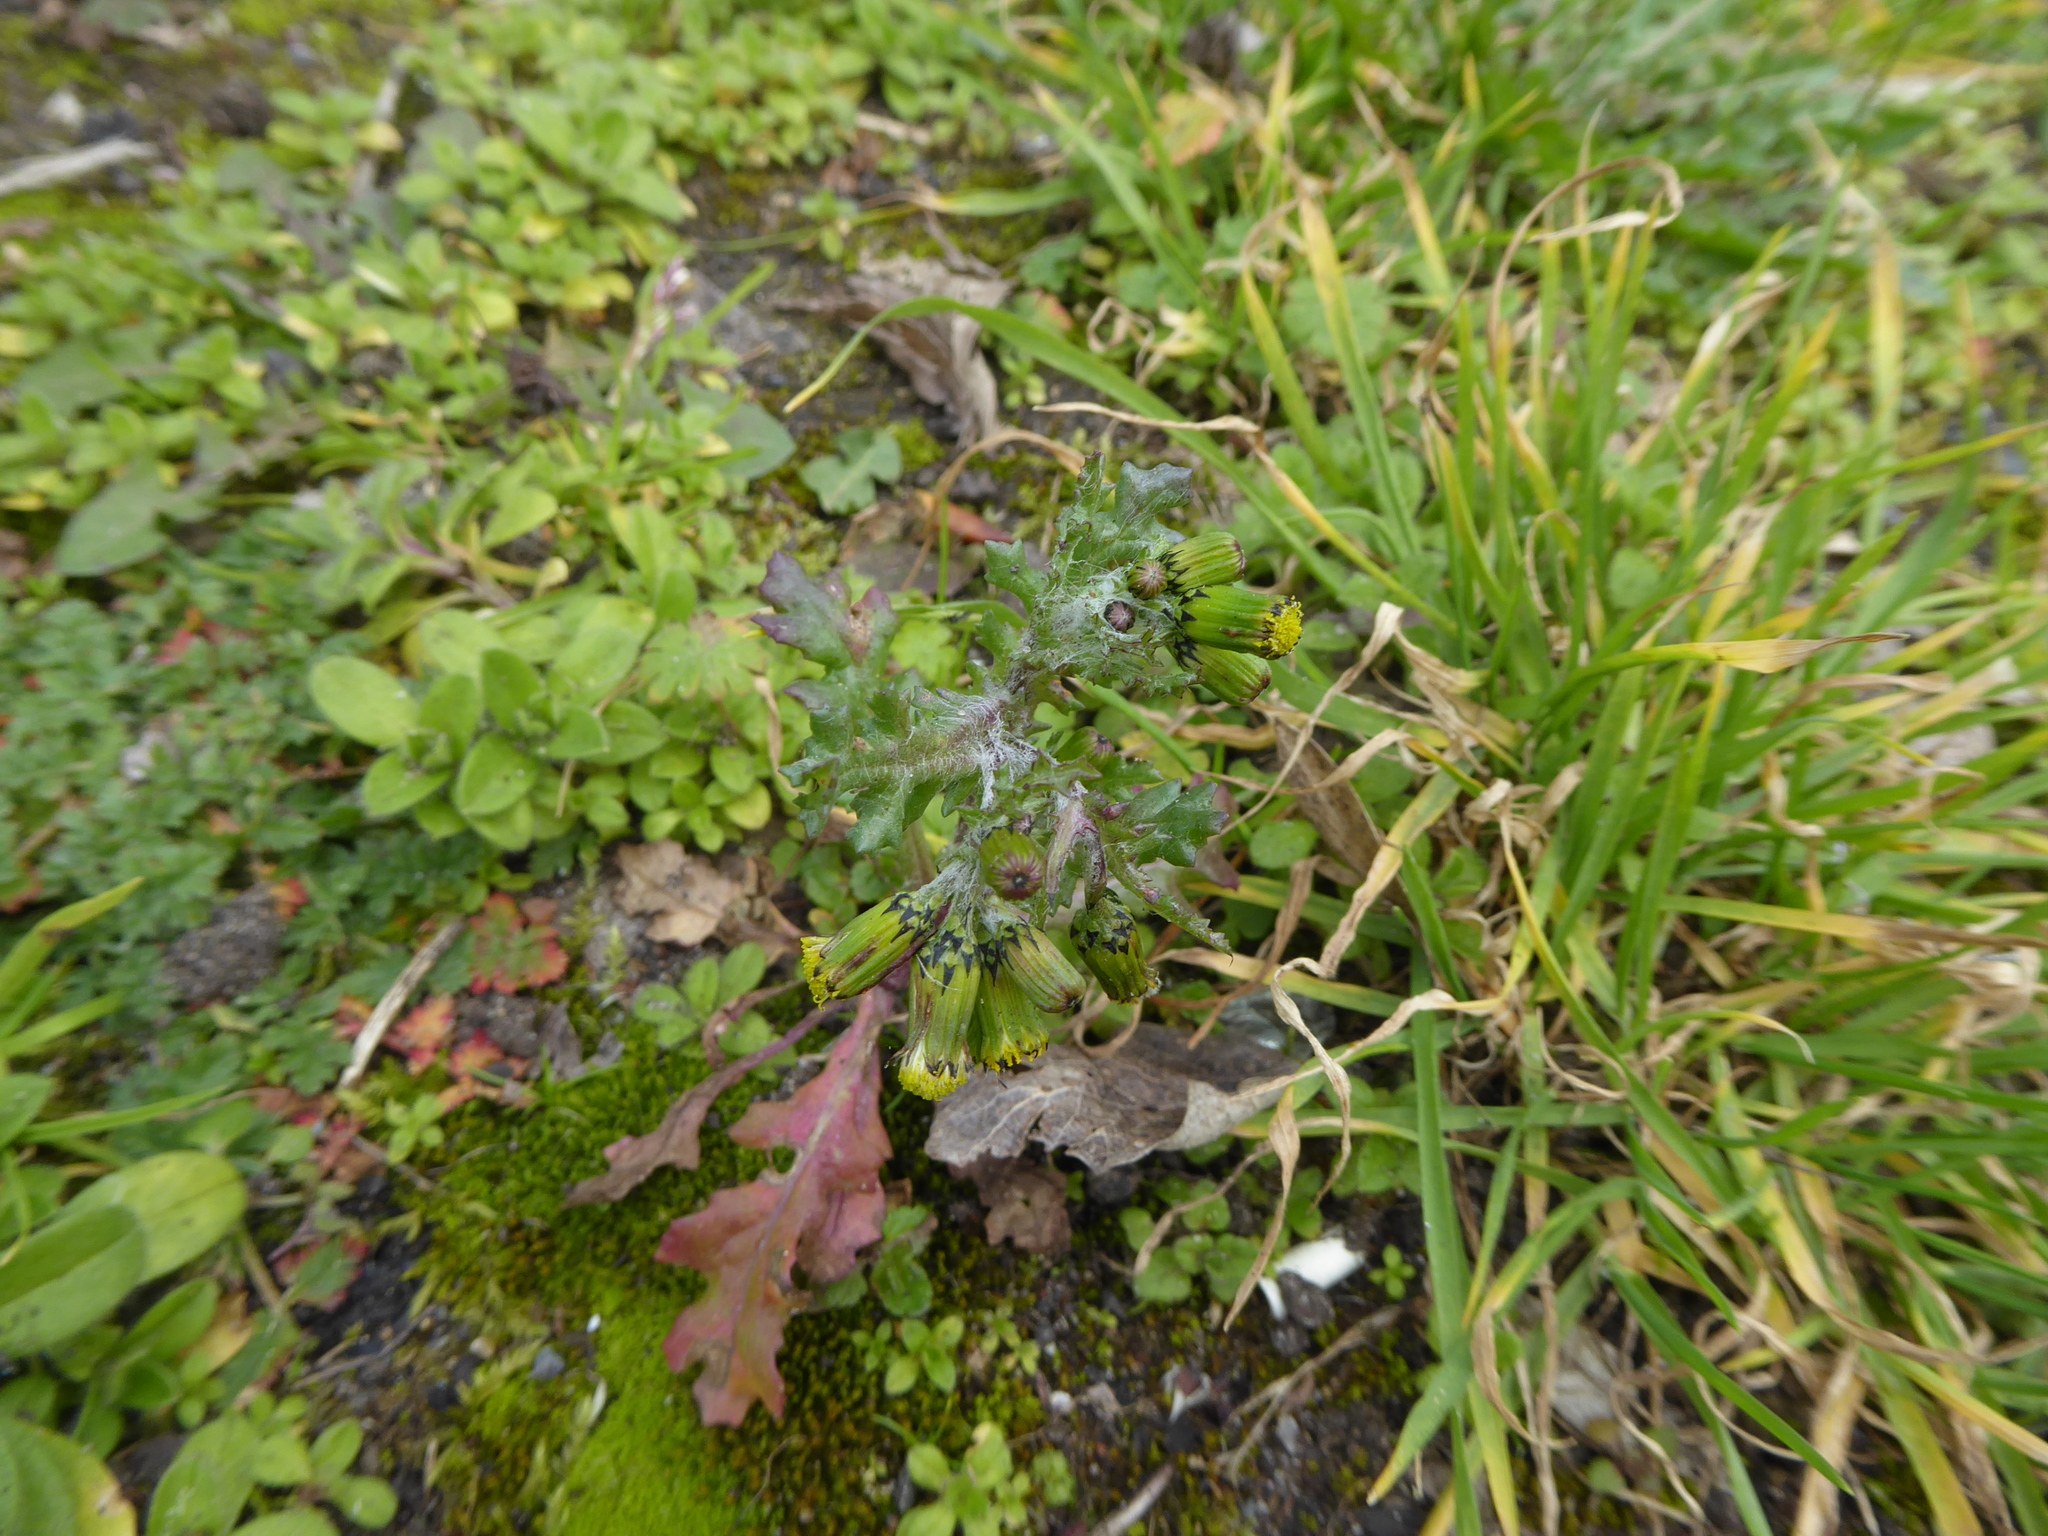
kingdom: Plantae
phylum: Tracheophyta
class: Magnoliopsida
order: Asterales
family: Asteraceae
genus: Senecio
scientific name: Senecio vulgaris
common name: Old-man-in-the-spring
